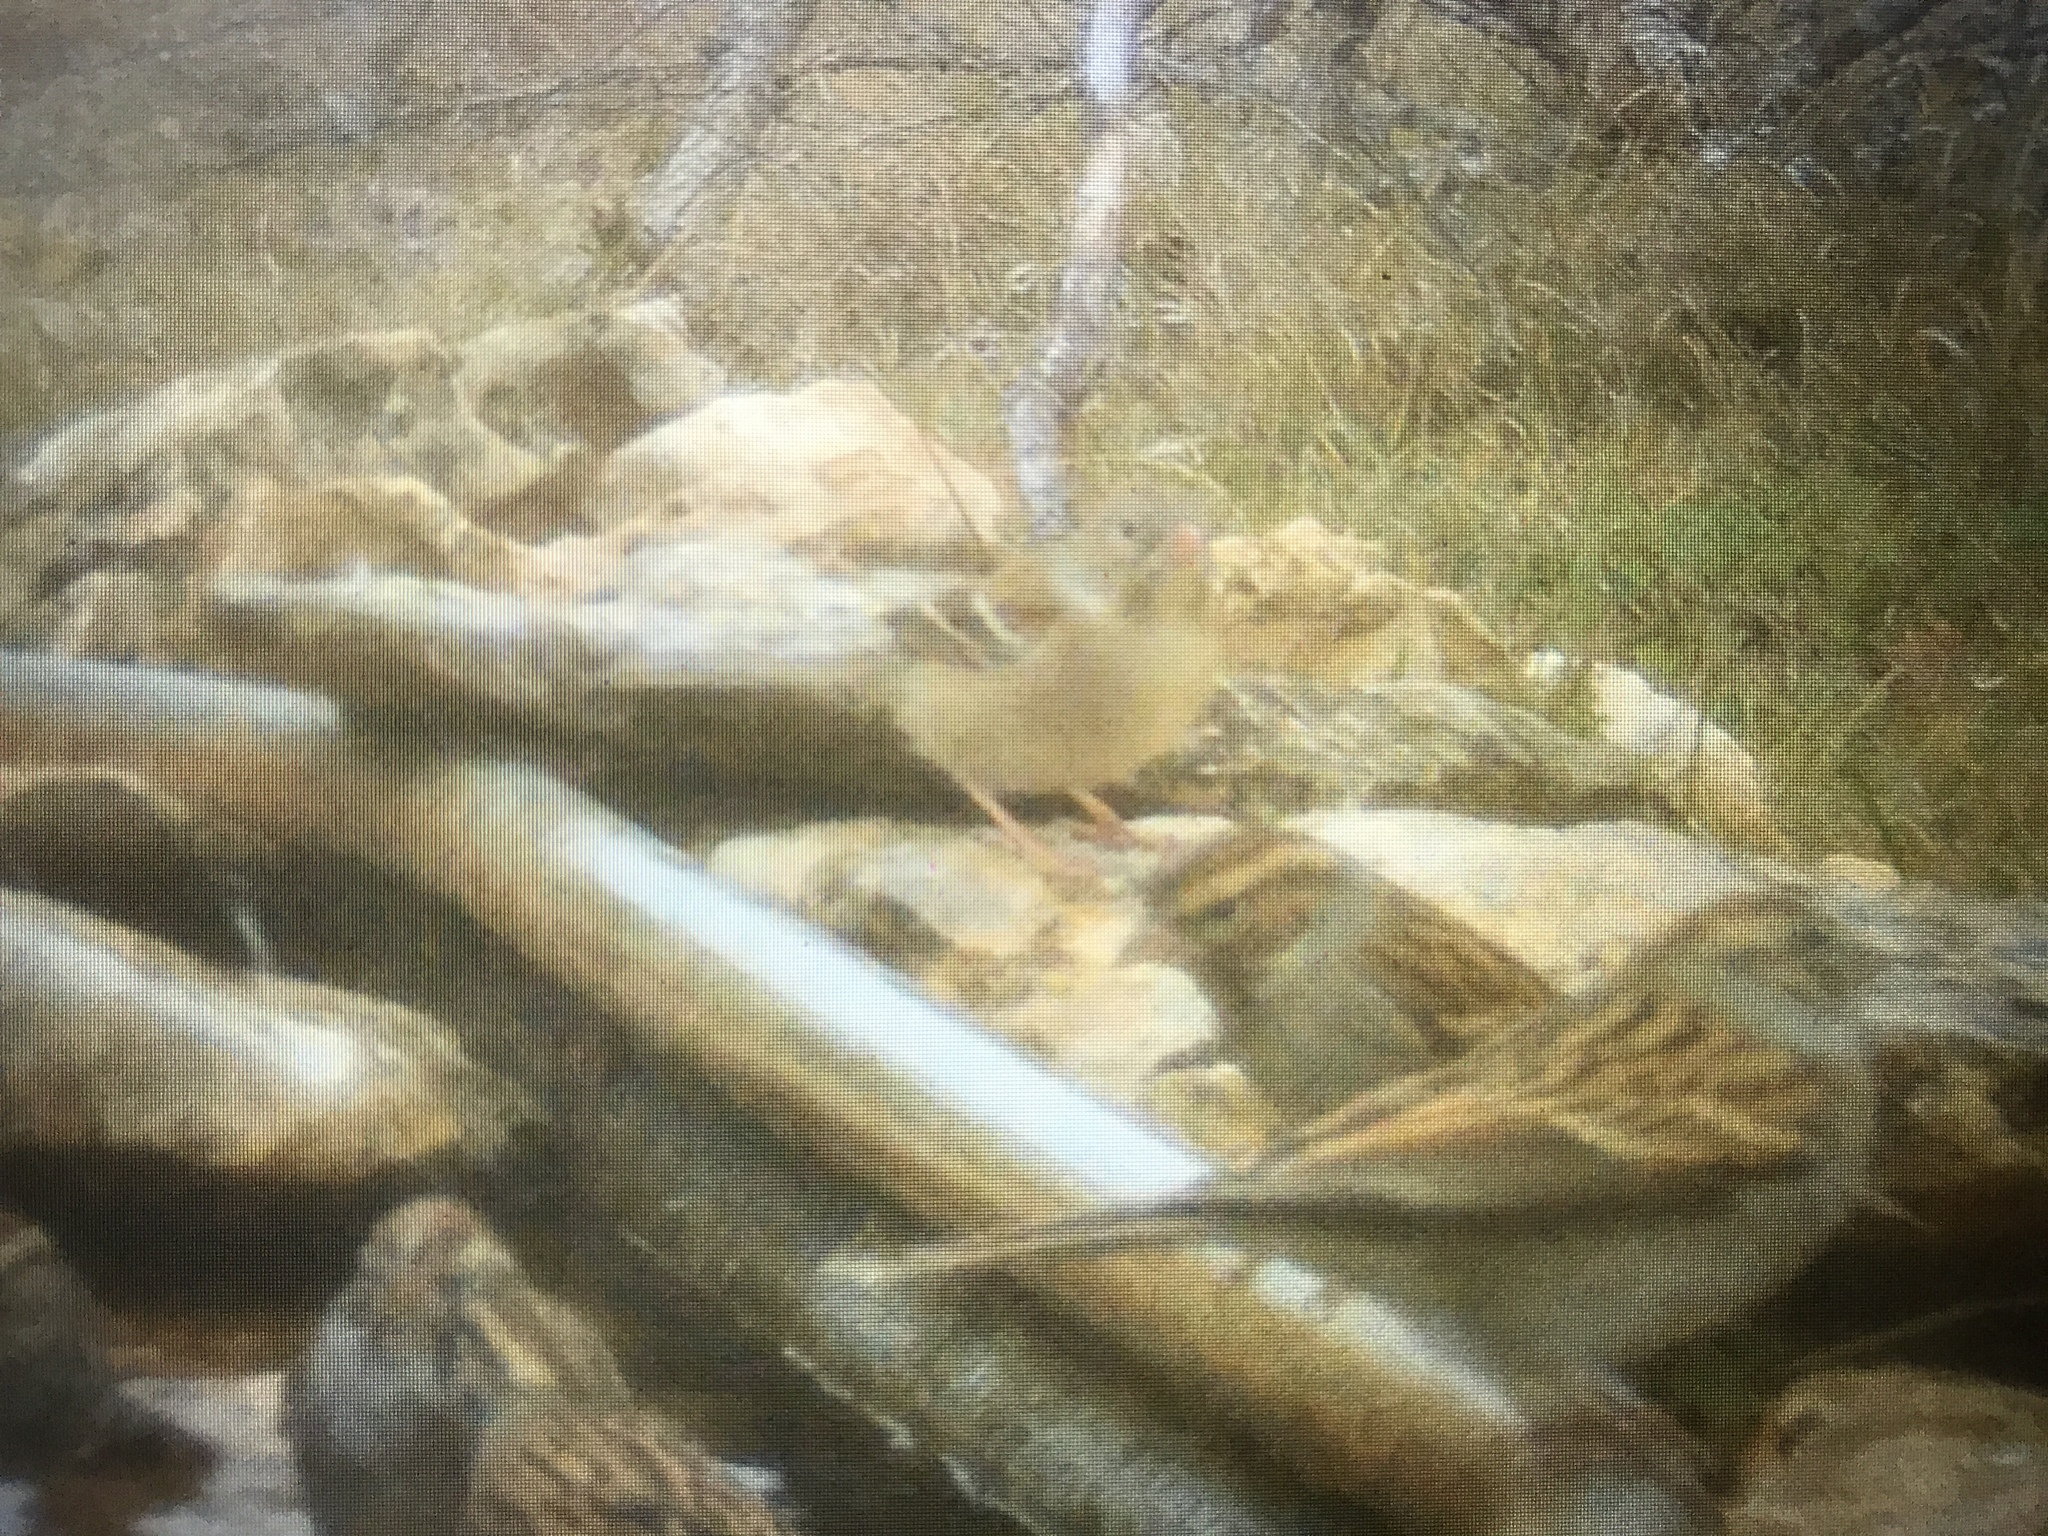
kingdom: Animalia
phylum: Chordata
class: Aves
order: Passeriformes
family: Passerellidae
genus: Spizella
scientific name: Spizella pusilla
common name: Field sparrow
